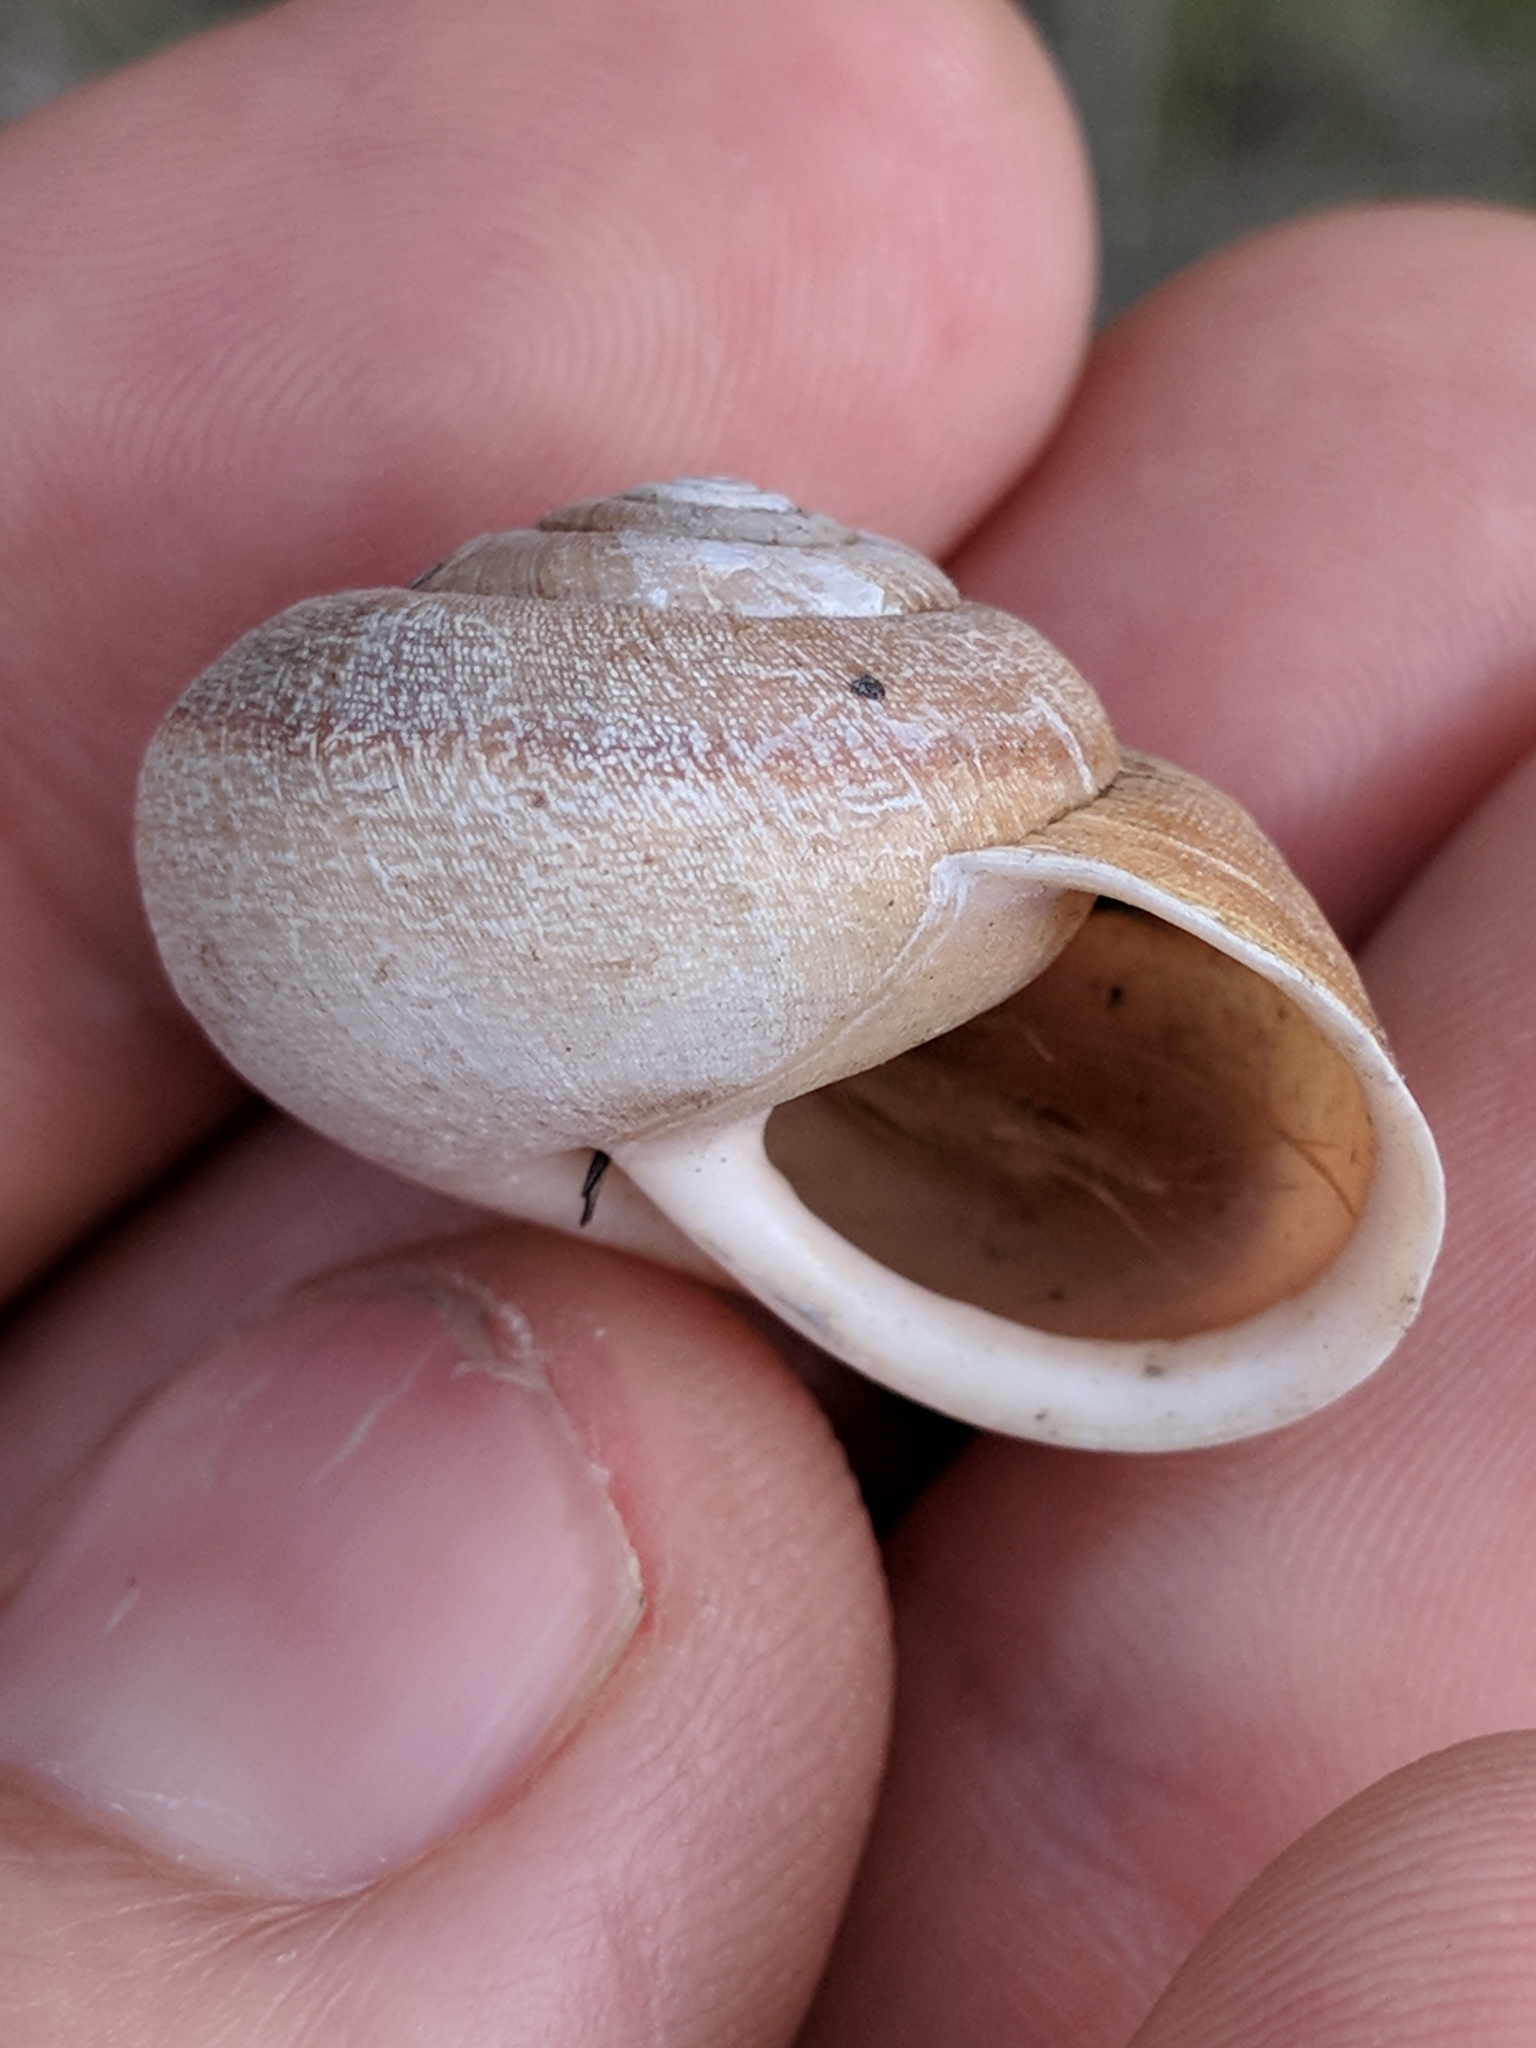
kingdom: Animalia
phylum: Mollusca
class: Gastropoda
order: Stylommatophora
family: Xanthonychidae
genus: Helminthoglypta
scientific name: Helminthoglypta diabloensis
